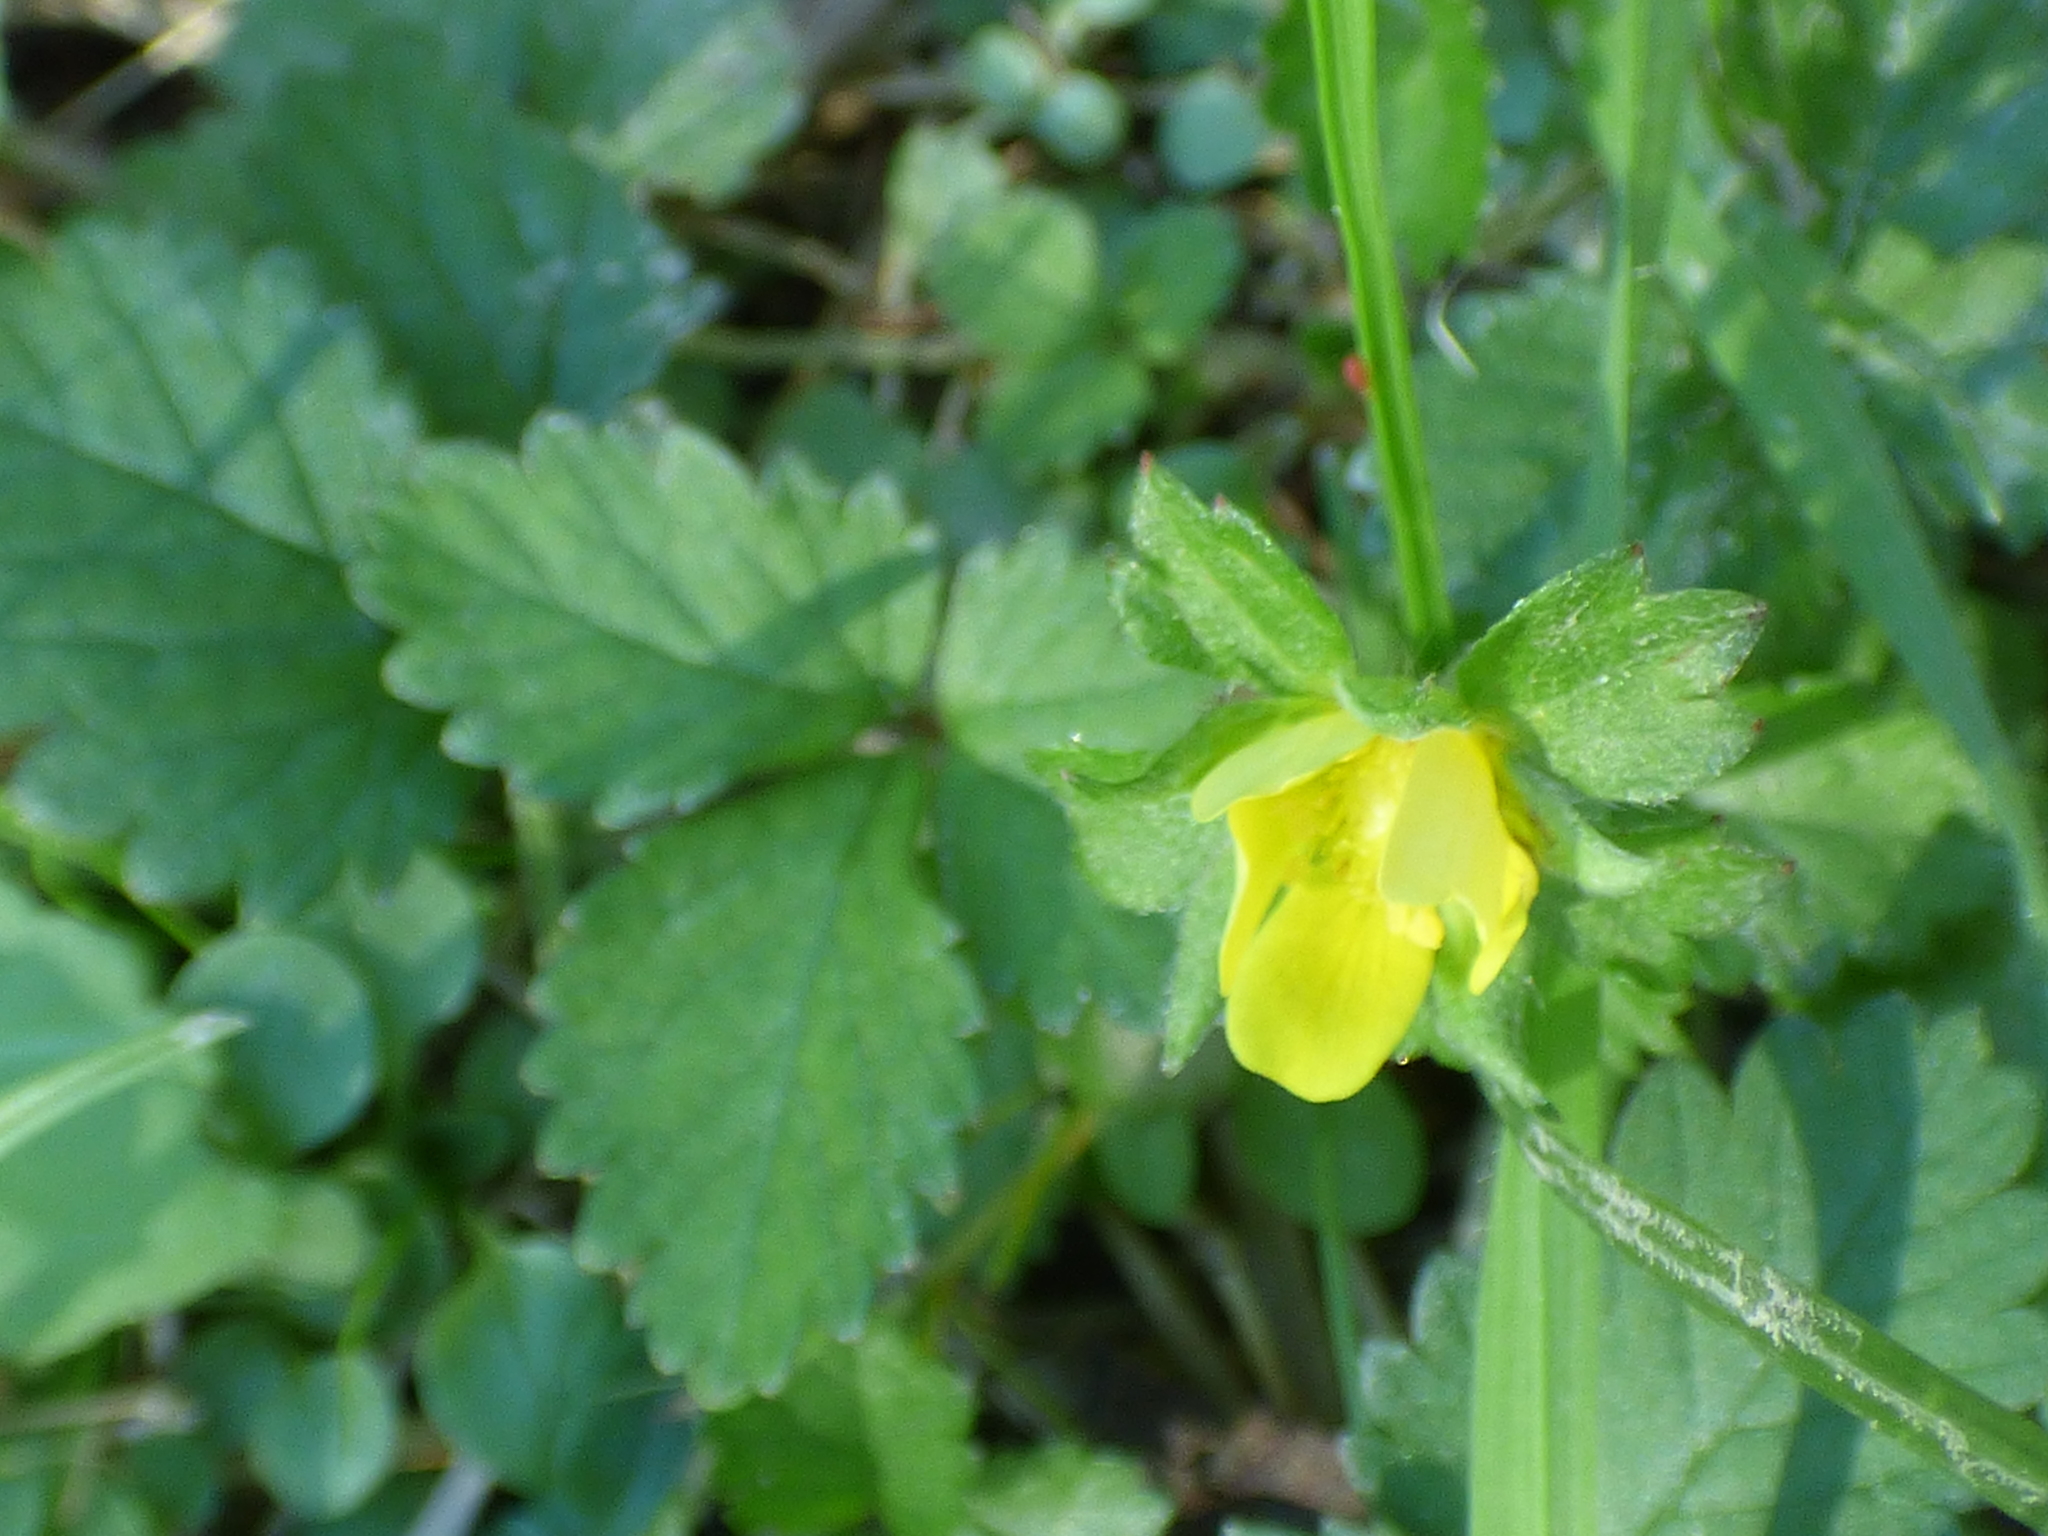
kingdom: Plantae
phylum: Tracheophyta
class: Magnoliopsida
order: Rosales
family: Rosaceae
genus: Potentilla
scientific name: Potentilla indica
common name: Yellow-flowered strawberry
